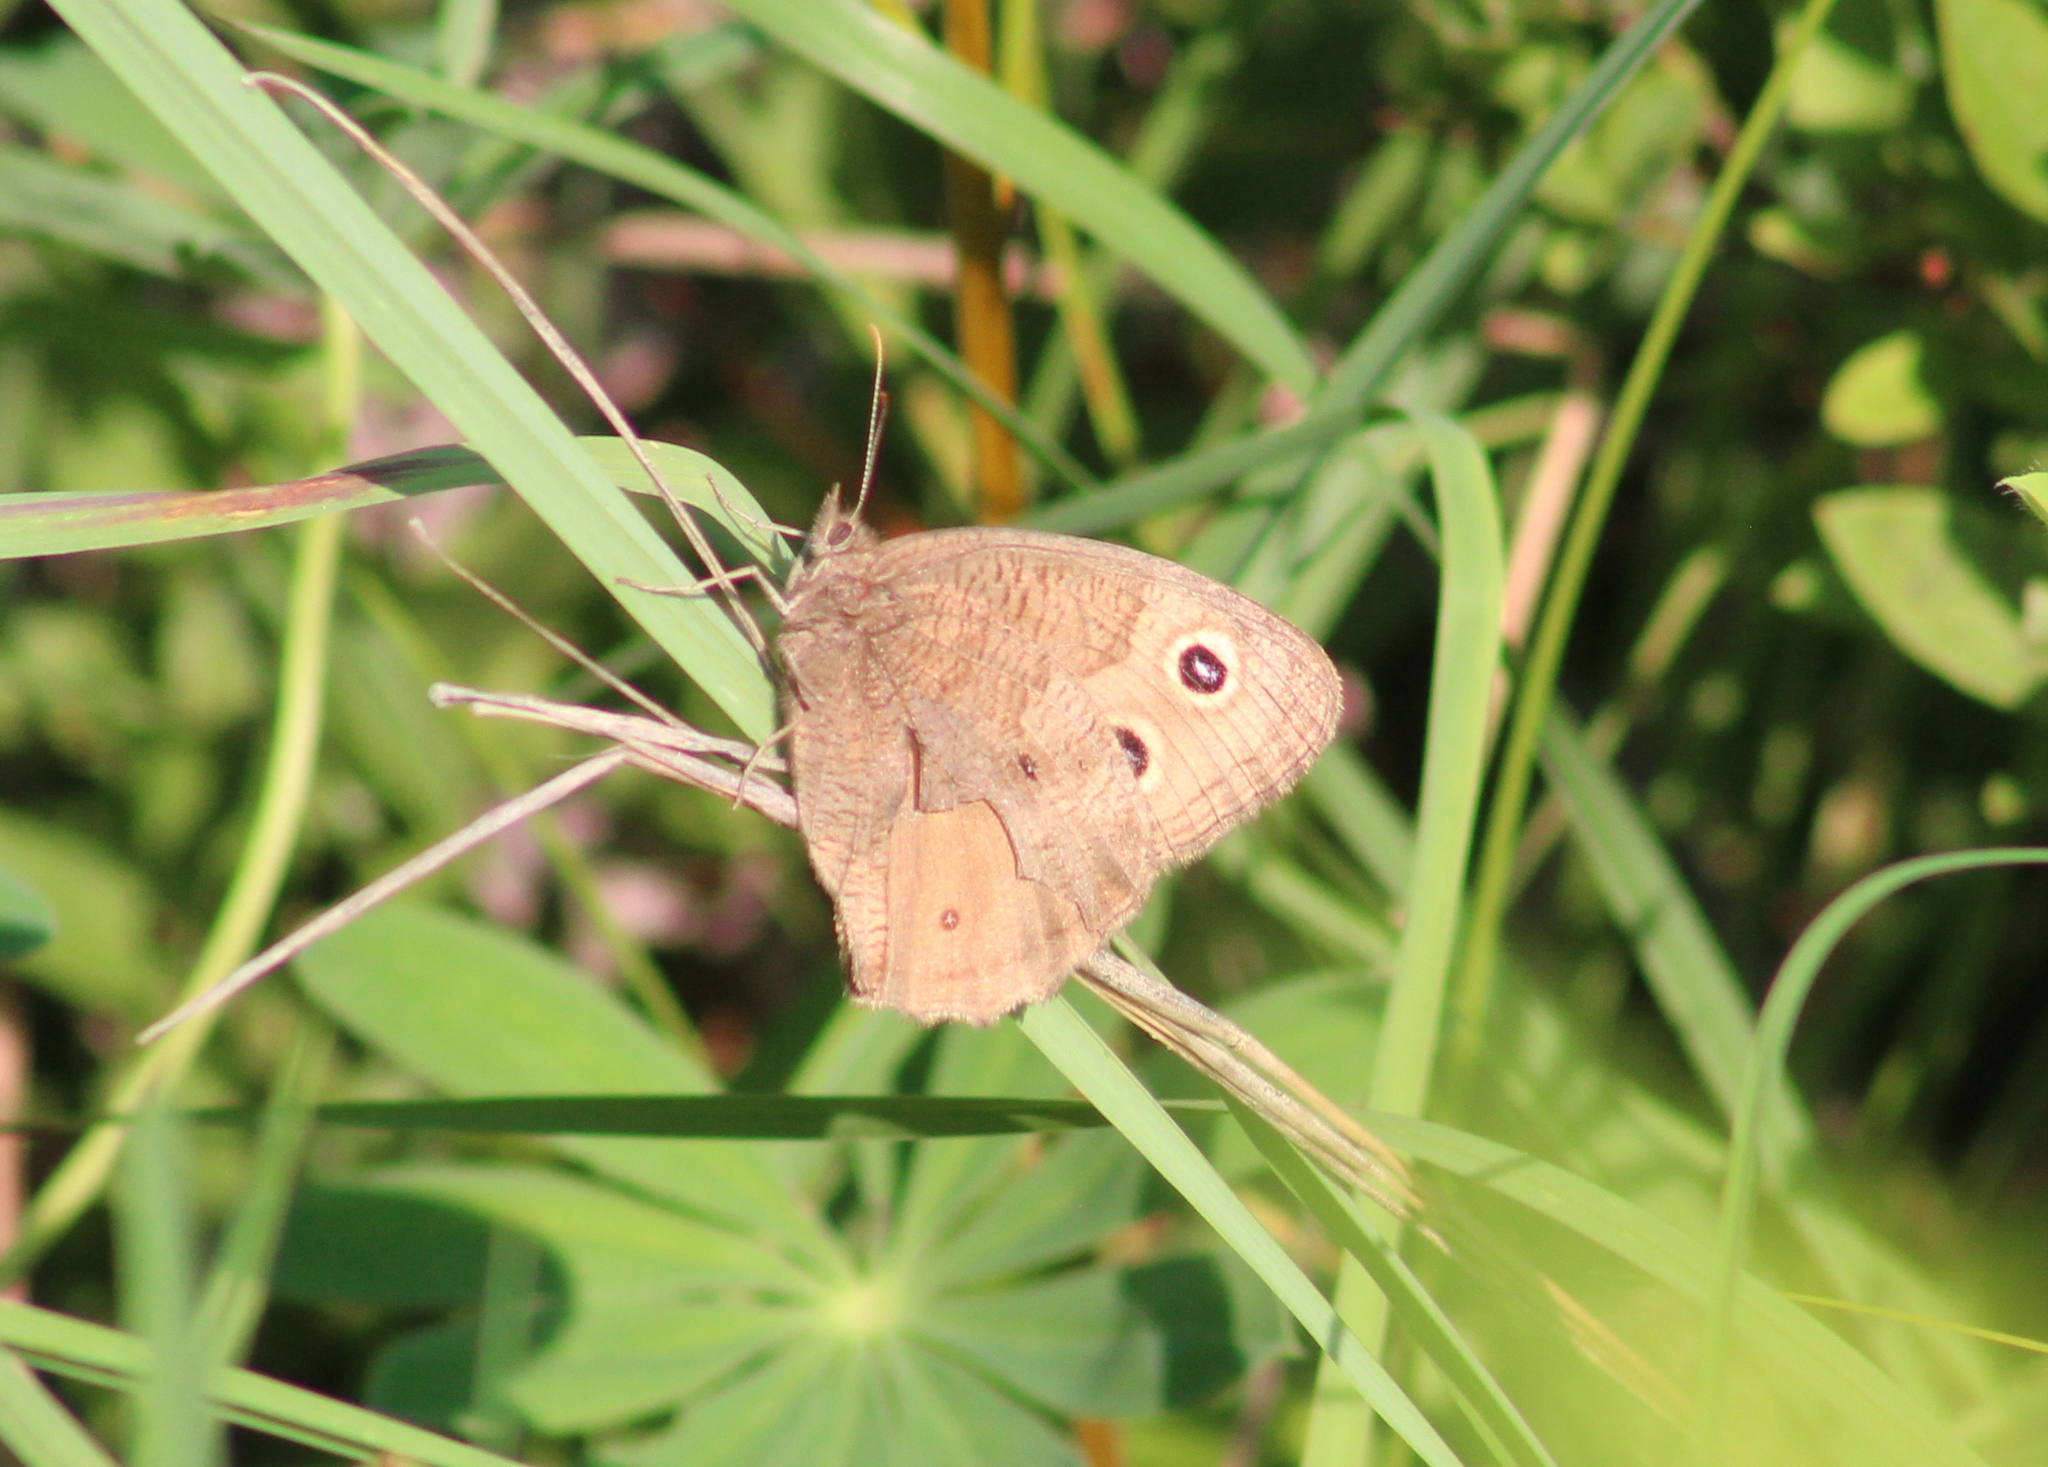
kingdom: Animalia
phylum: Arthropoda
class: Insecta
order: Lepidoptera
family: Nymphalidae
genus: Cercyonis
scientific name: Cercyonis pegala
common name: Common wood-nymph
